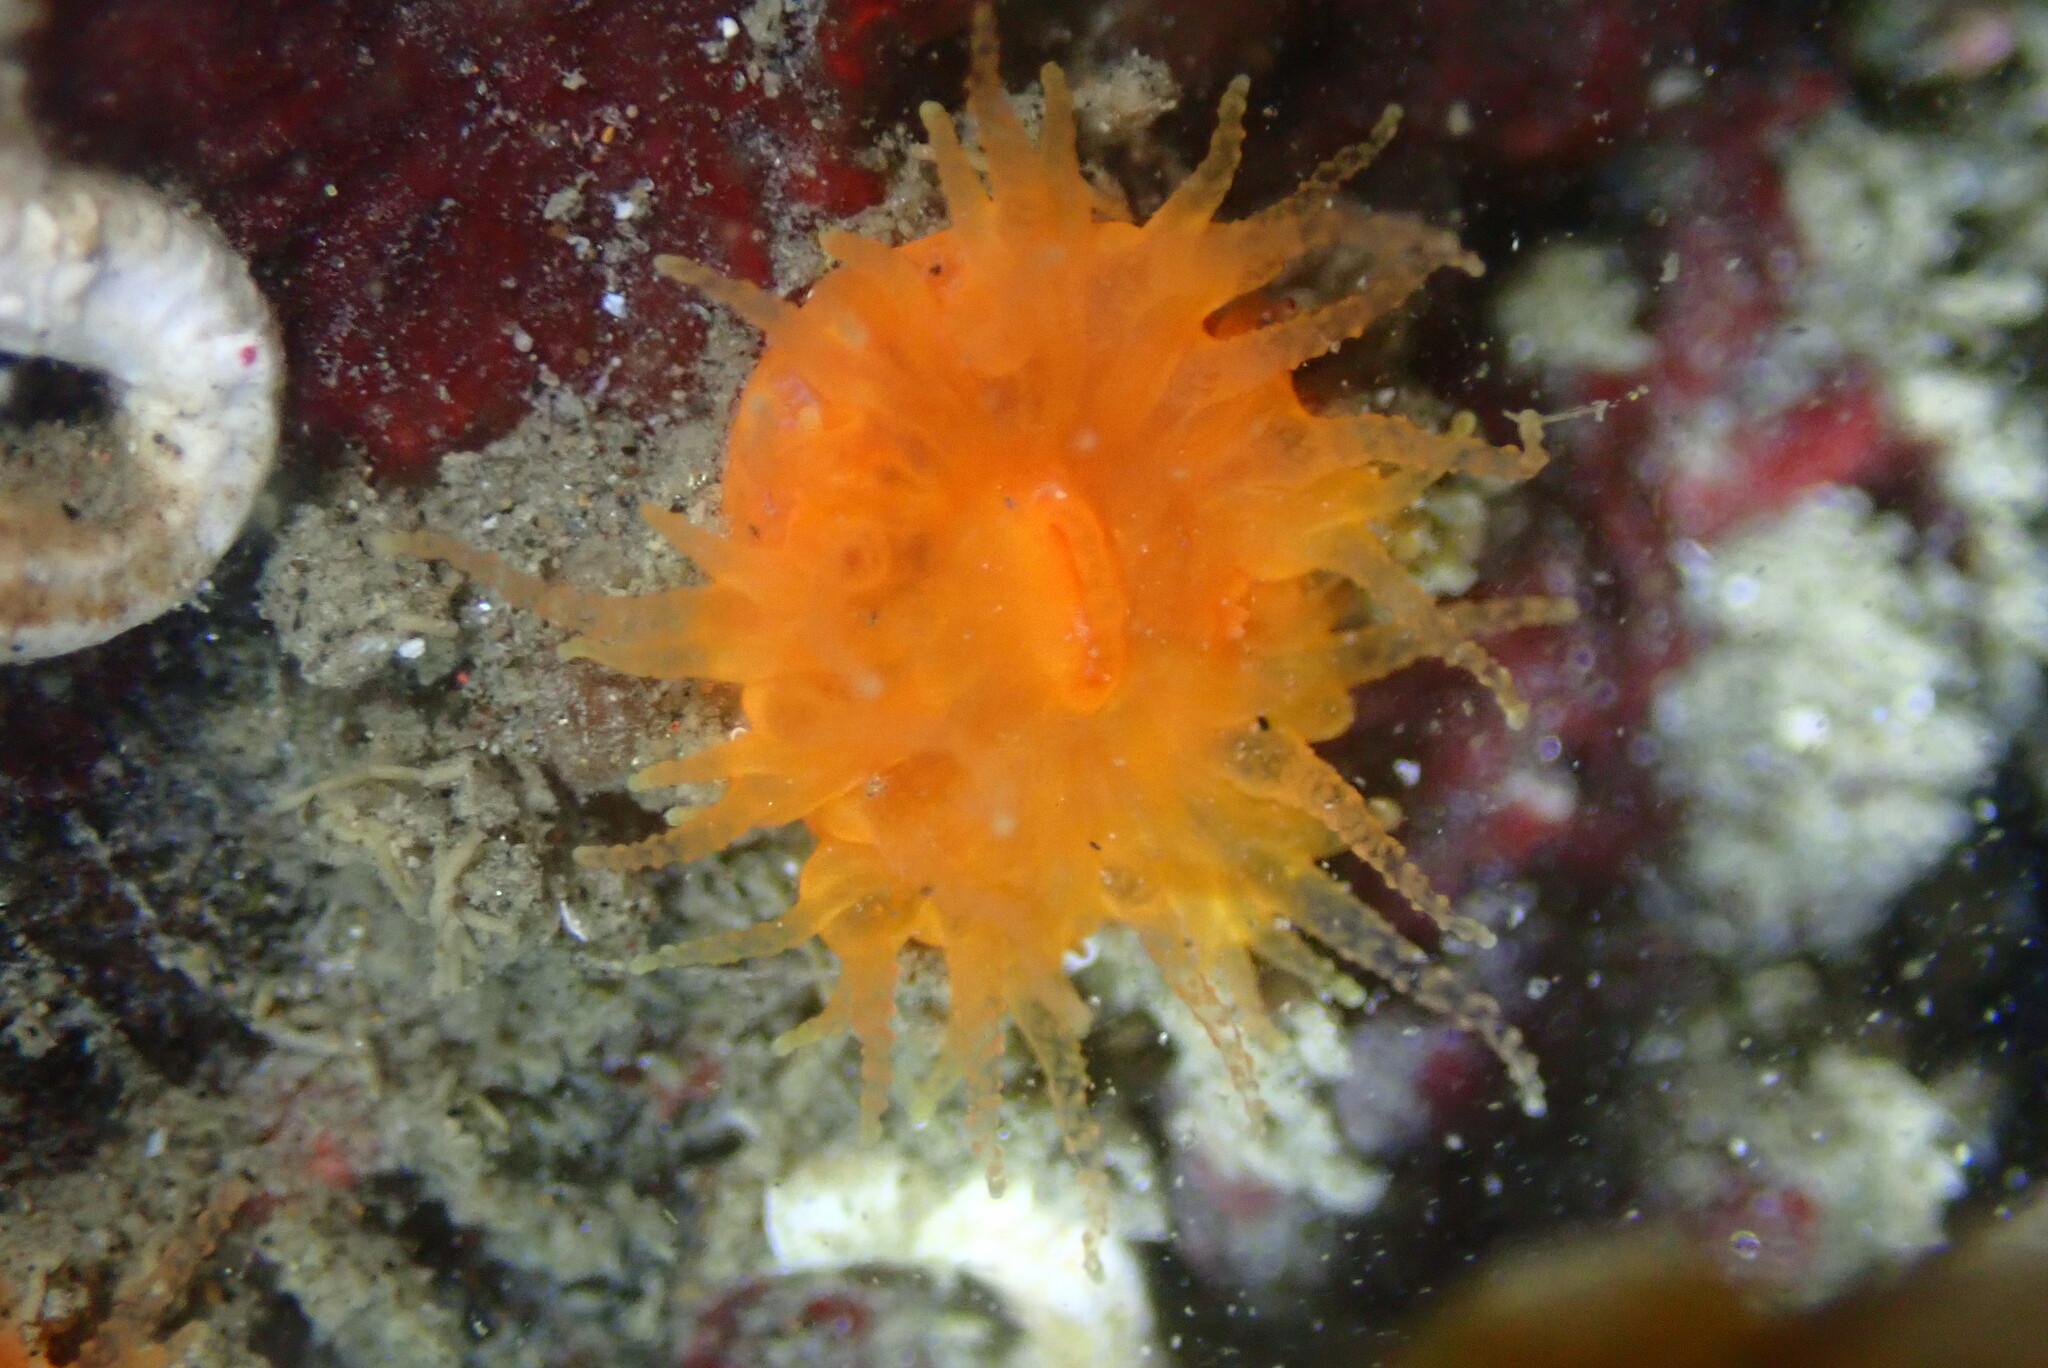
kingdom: Animalia
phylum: Cnidaria
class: Anthozoa
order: Scleractinia
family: Dendrophylliidae
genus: Balanophyllia
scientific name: Balanophyllia elegans
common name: Orange stony coral
